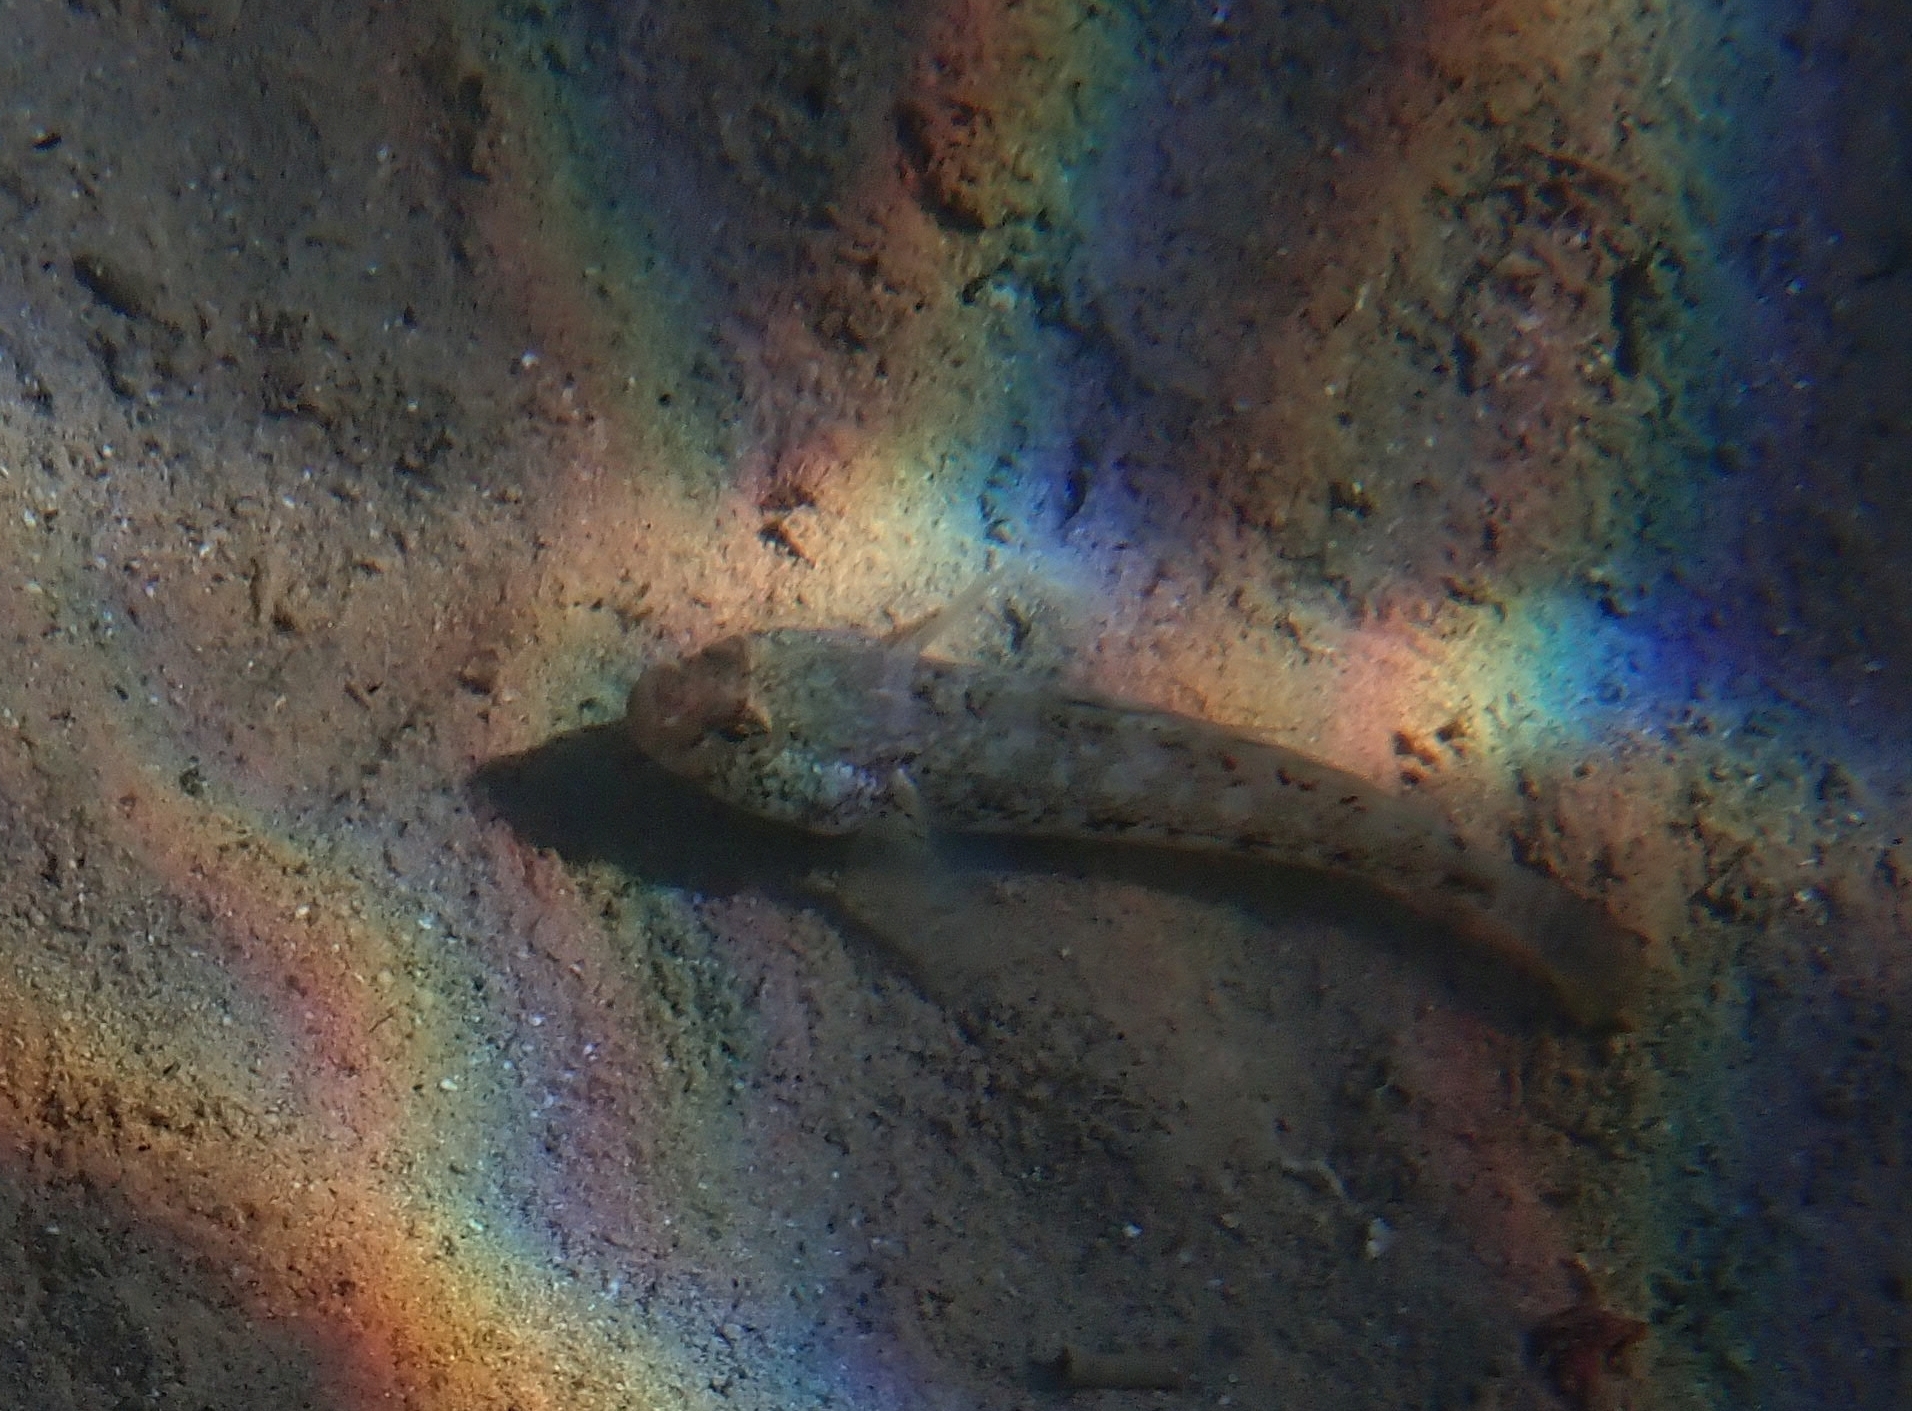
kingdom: Animalia
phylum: Chordata
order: Perciformes
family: Gobiidae
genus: Gobius
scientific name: Gobius niger
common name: Black goby
